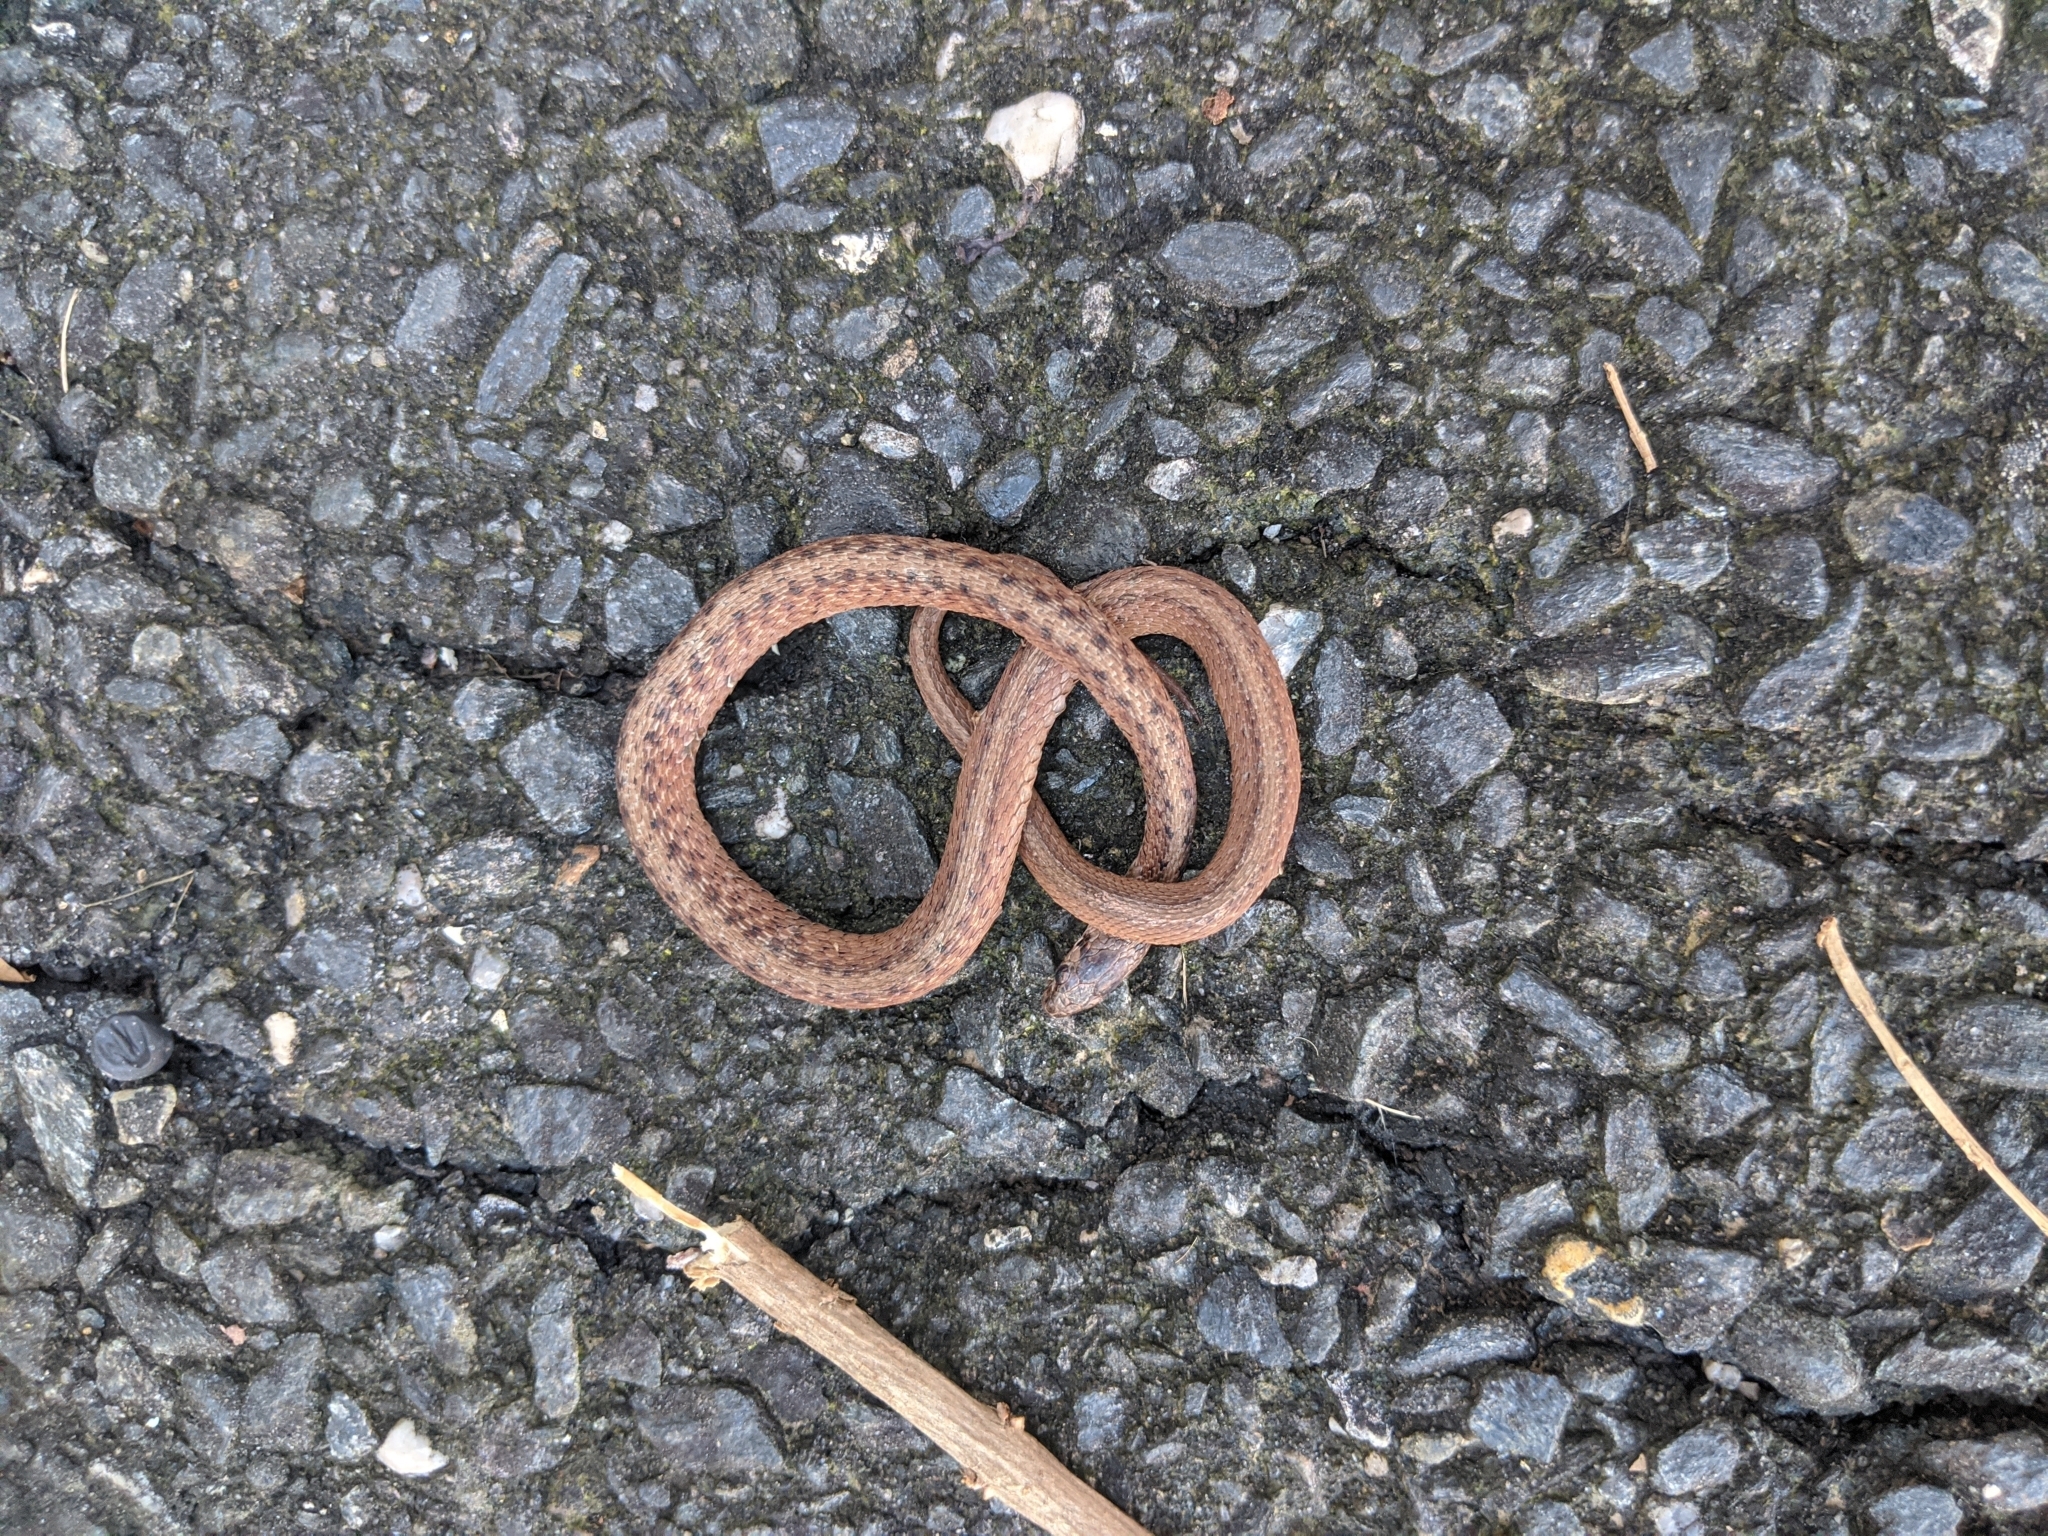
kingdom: Animalia
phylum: Chordata
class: Squamata
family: Colubridae
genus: Storeria
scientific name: Storeria dekayi
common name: (dekay’s) brown snake
